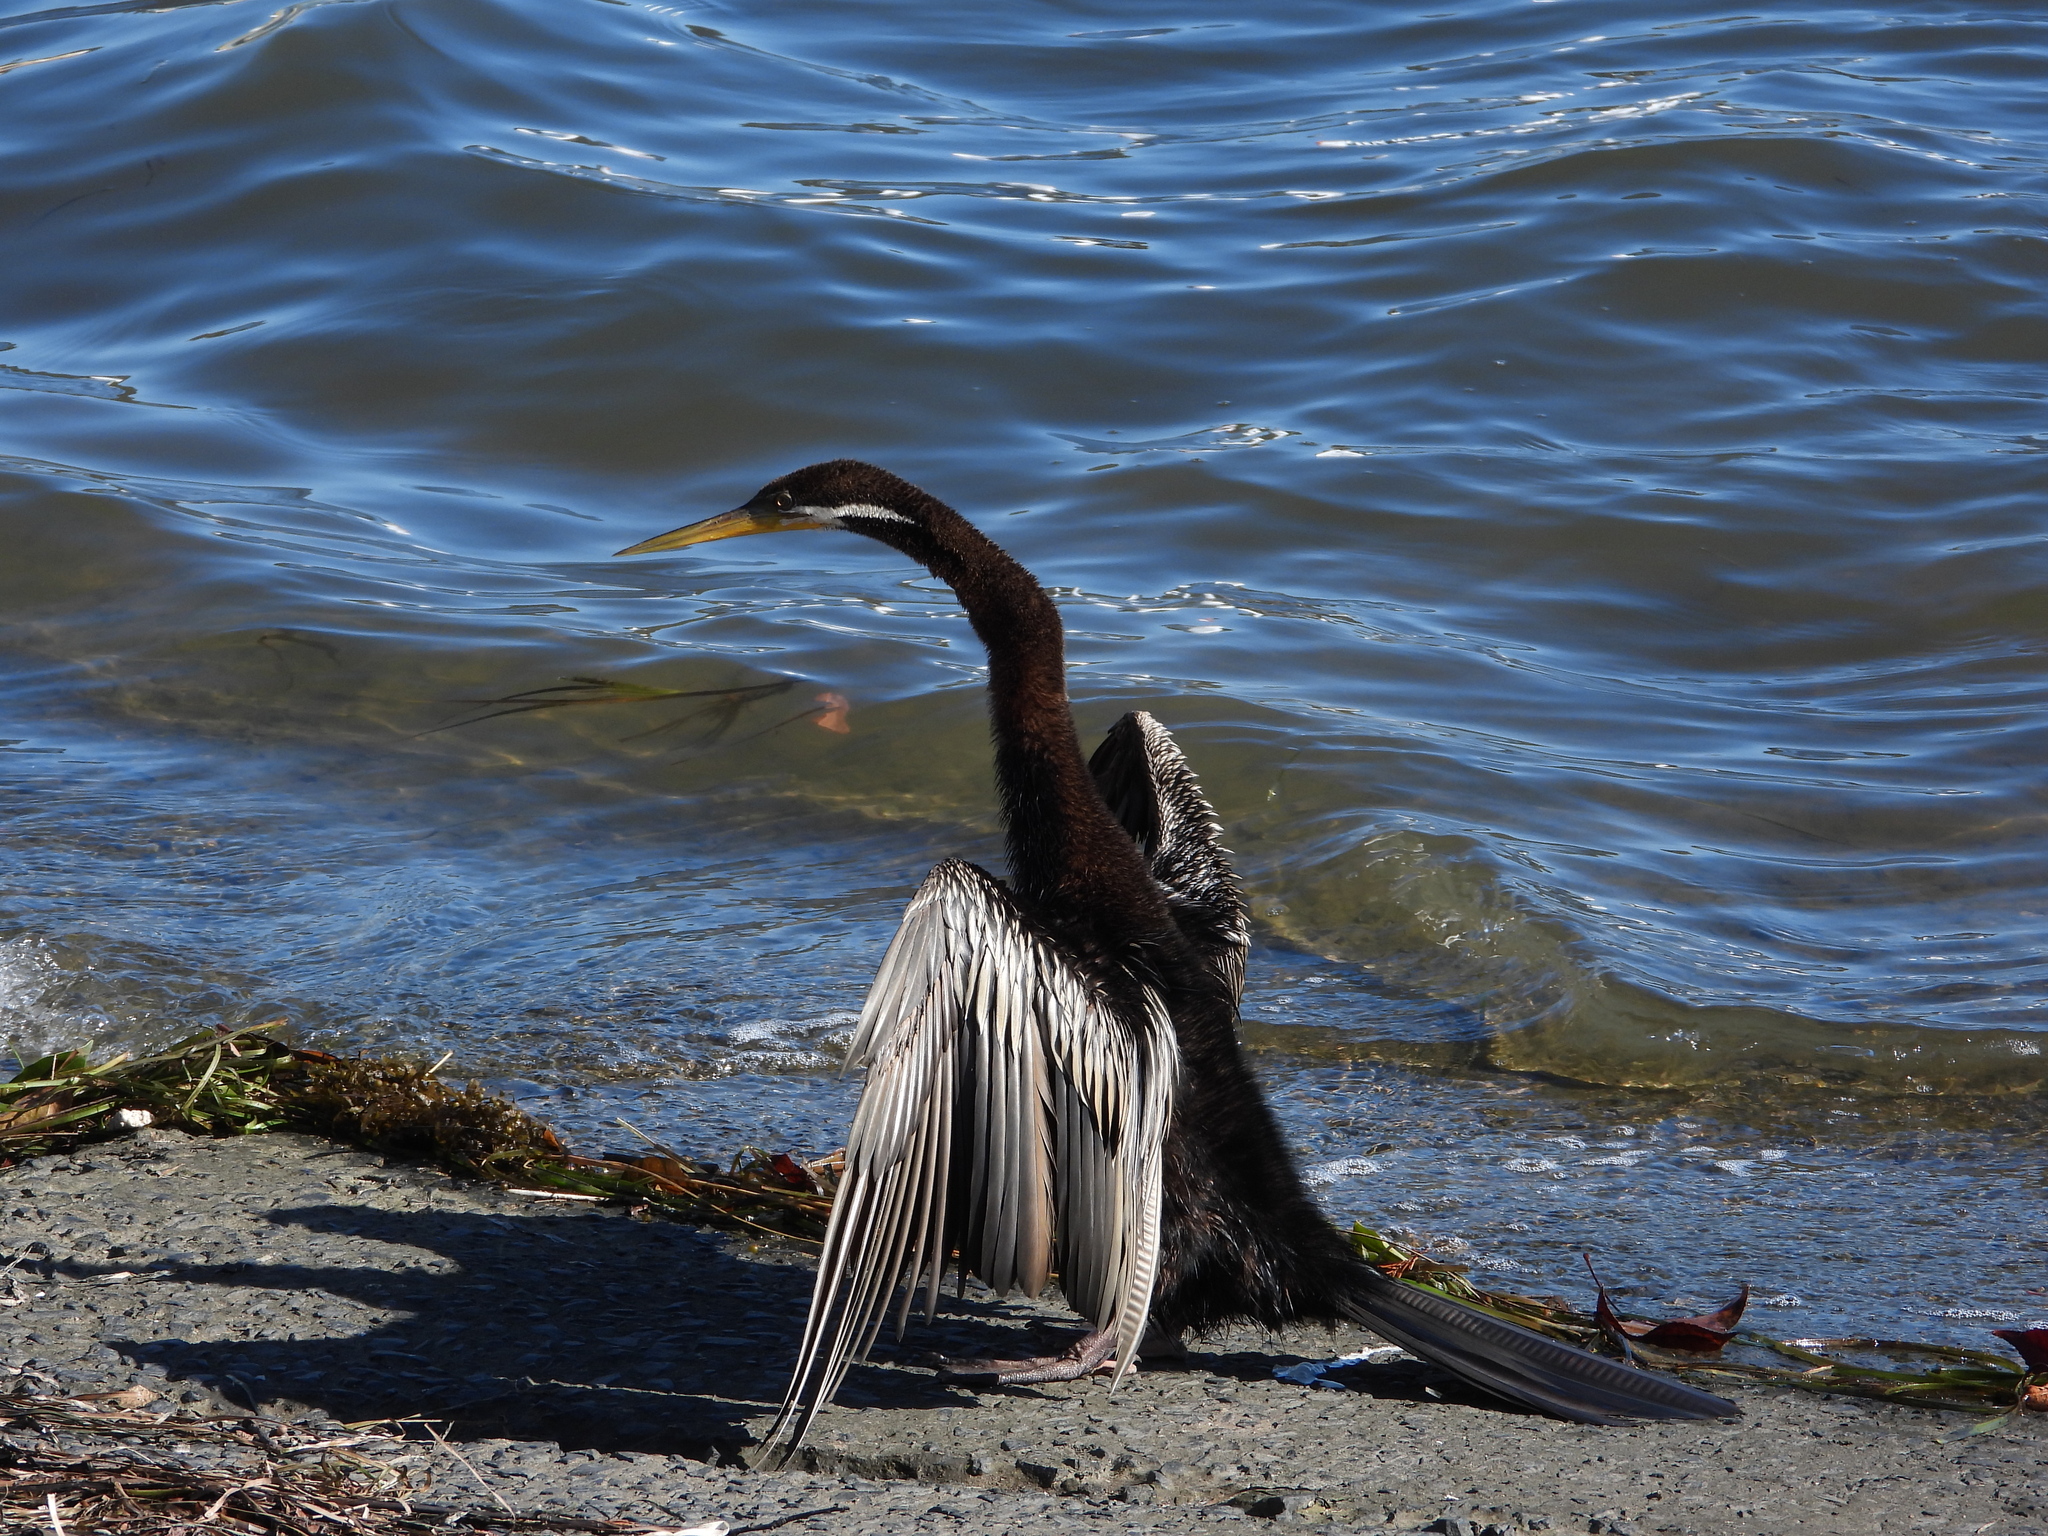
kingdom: Animalia
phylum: Chordata
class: Aves
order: Suliformes
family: Anhingidae
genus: Anhinga
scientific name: Anhinga novaehollandiae
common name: Australasian darter
